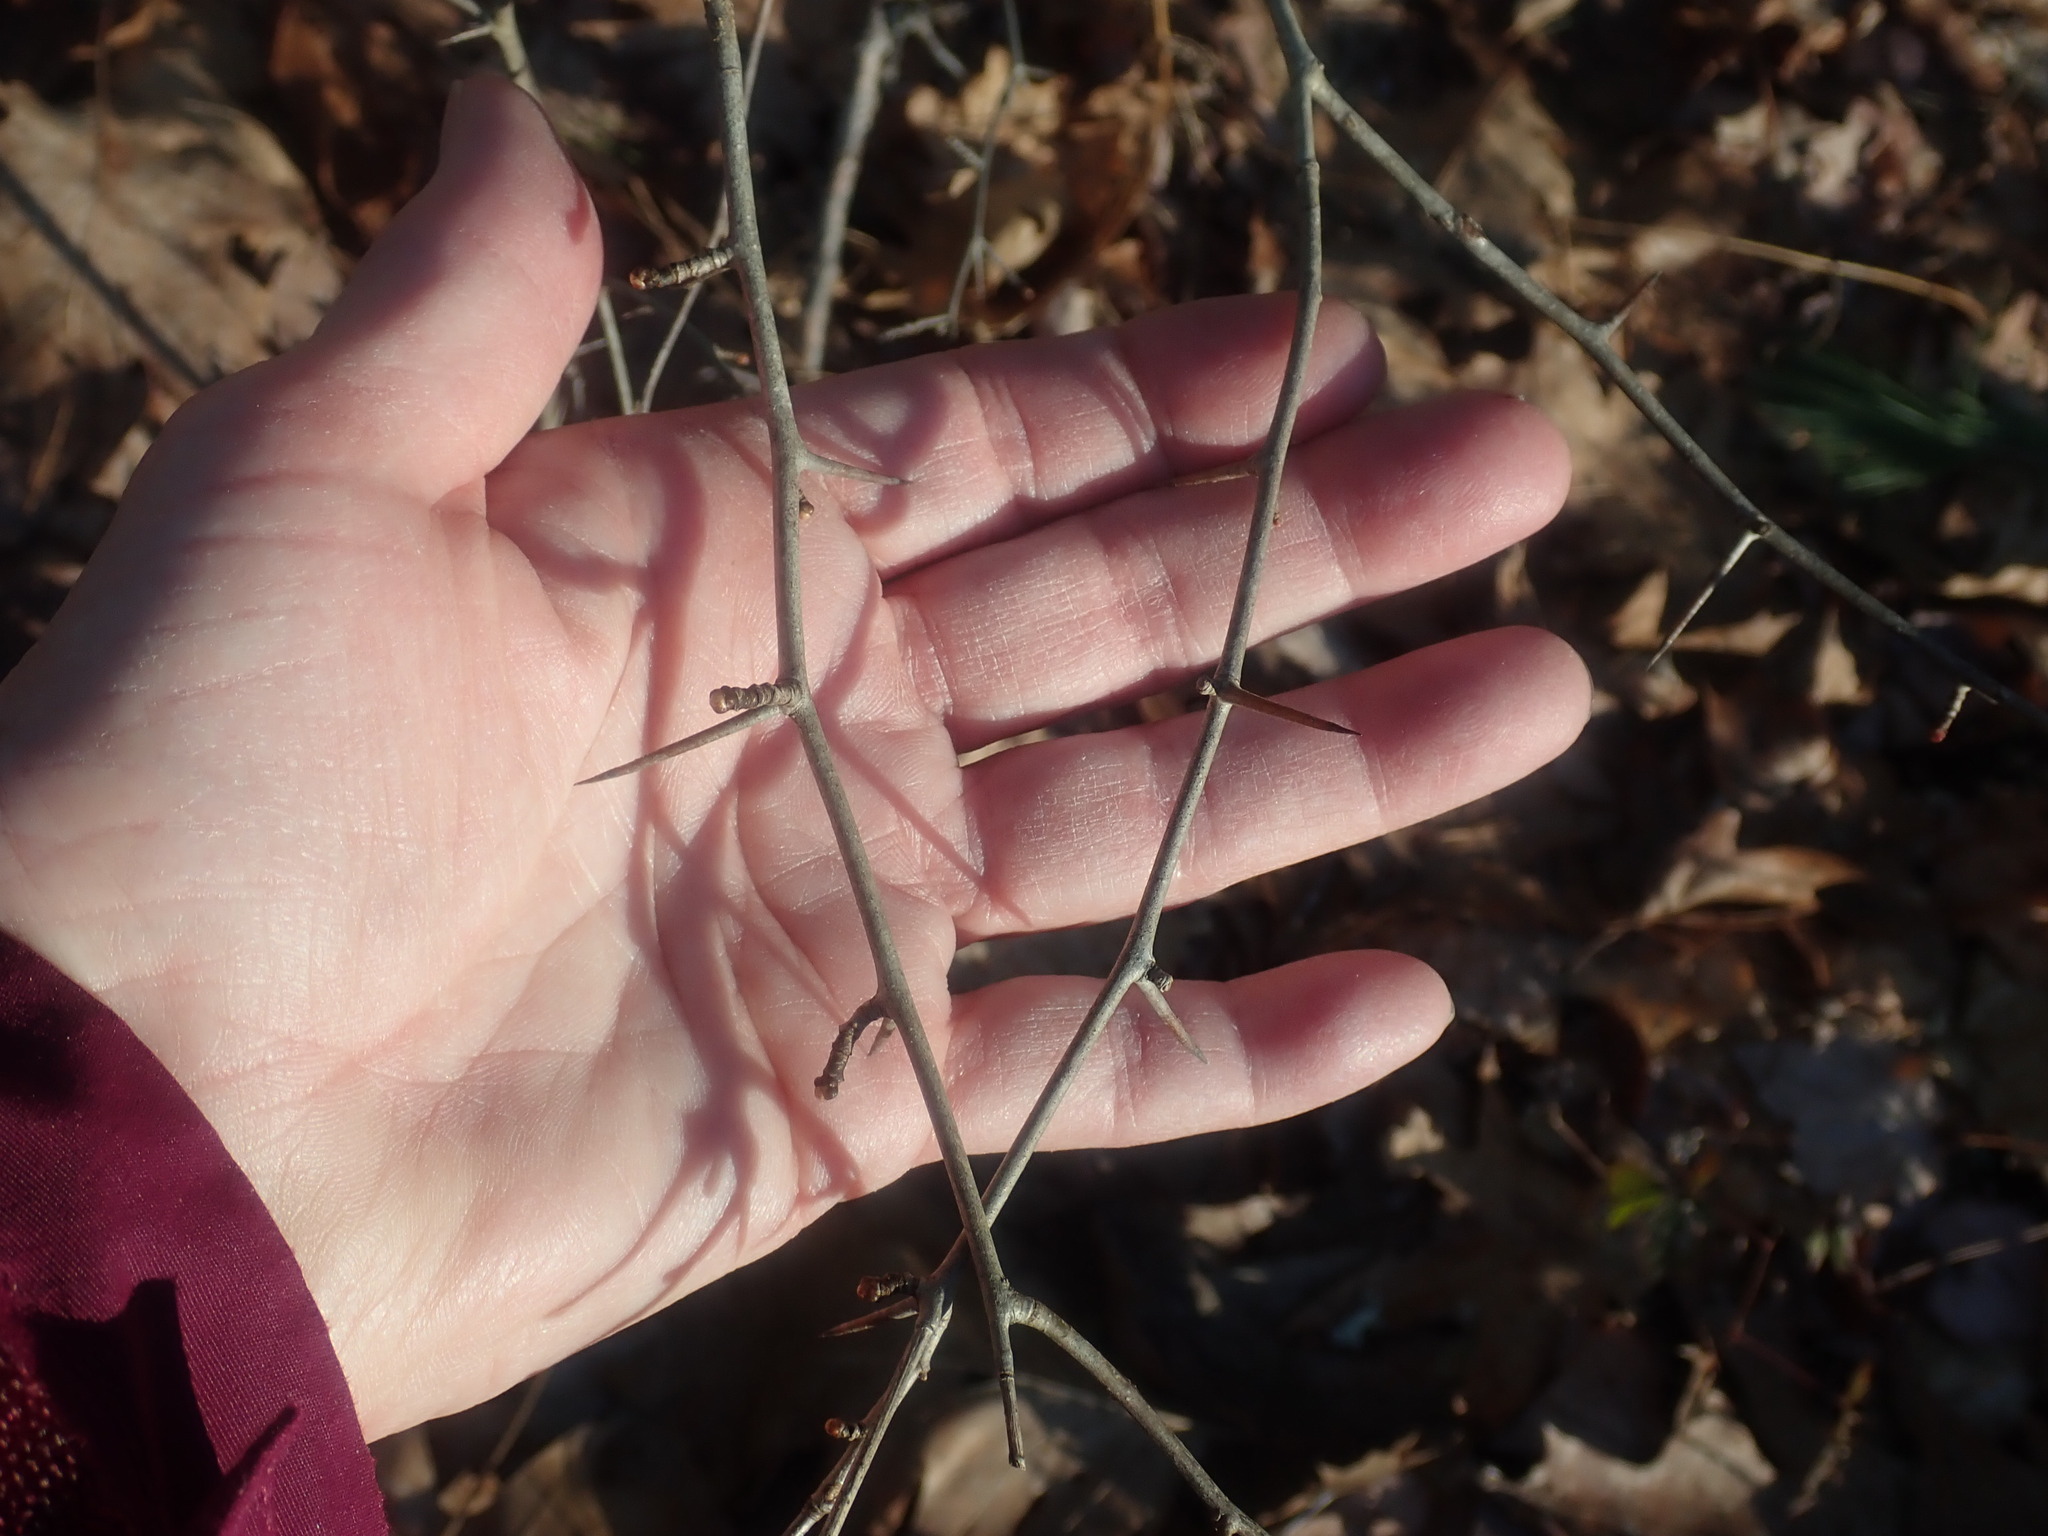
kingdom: Plantae
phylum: Tracheophyta
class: Magnoliopsida
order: Rosales
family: Rosaceae
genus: Crataegus
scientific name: Crataegus
